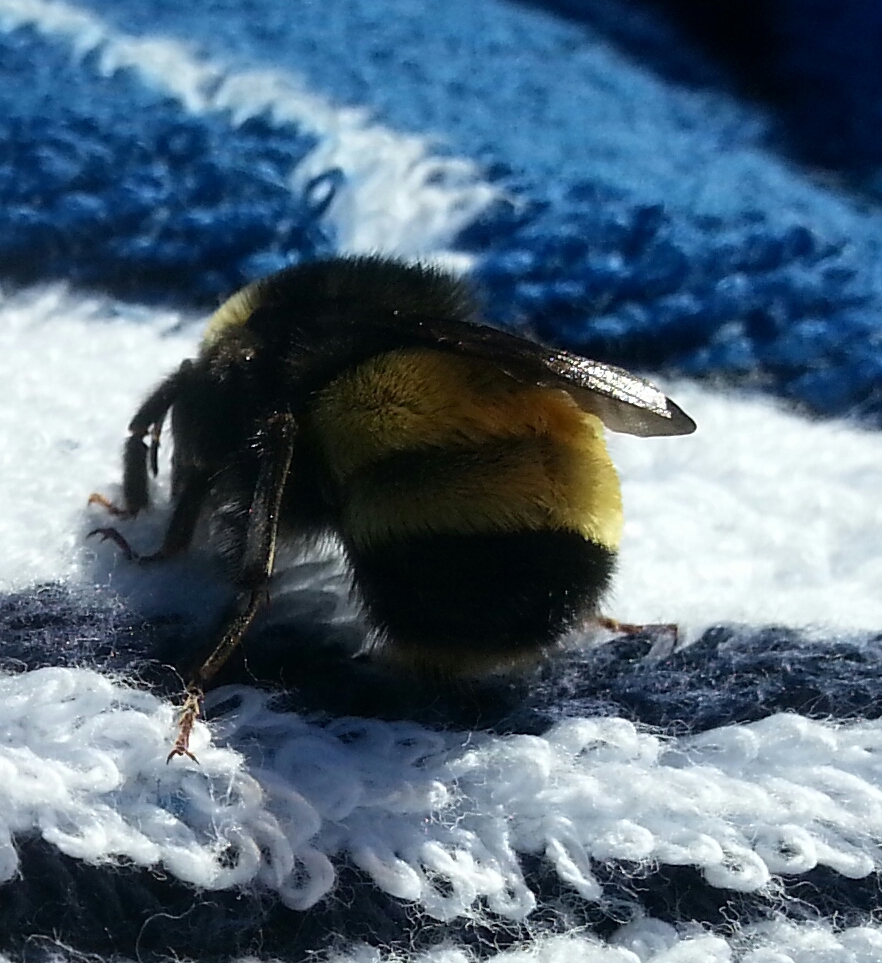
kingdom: Animalia
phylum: Arthropoda
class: Insecta
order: Hymenoptera
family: Apidae
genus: Bombus
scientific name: Bombus terricola
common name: Yellow-banded bumble bee
